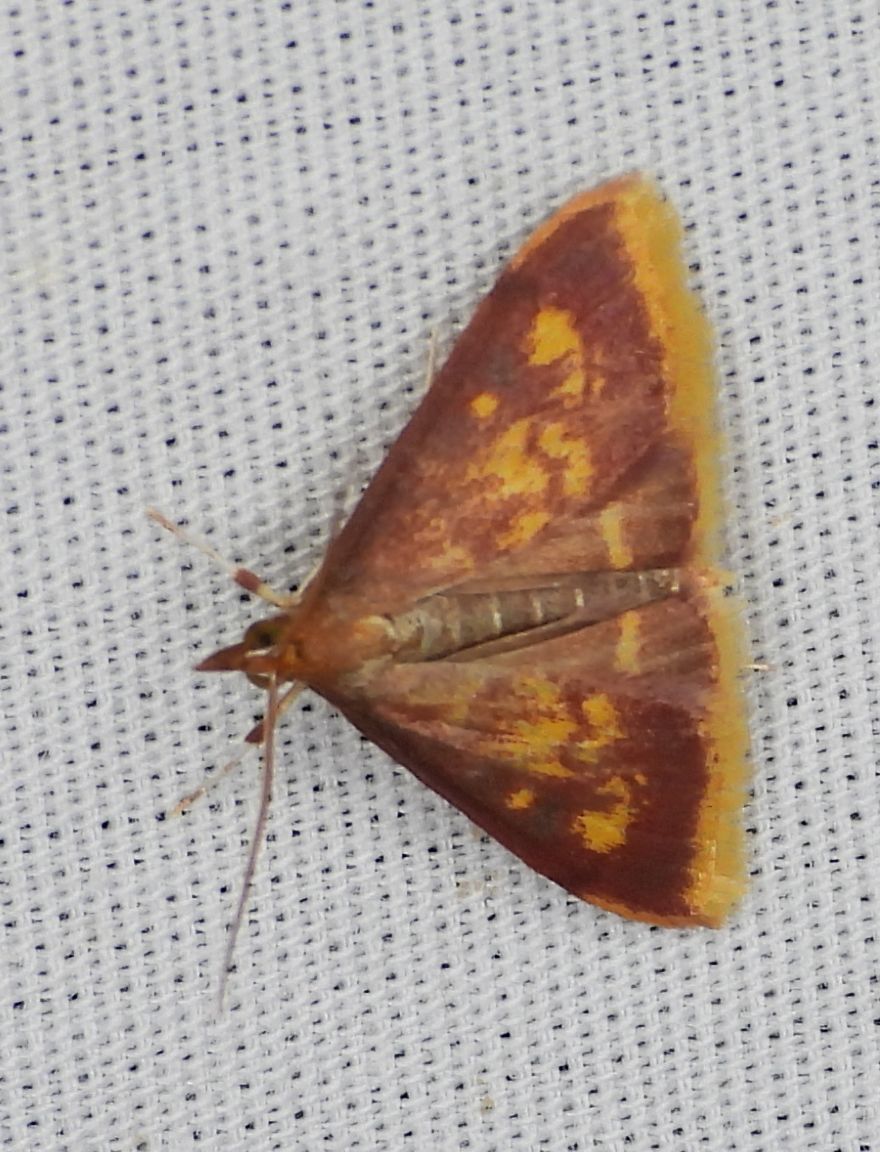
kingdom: Animalia
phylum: Arthropoda
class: Insecta
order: Lepidoptera
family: Crambidae
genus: Pyrausta
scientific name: Pyrausta acrionalis
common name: Mint-loving pyrausta moth
